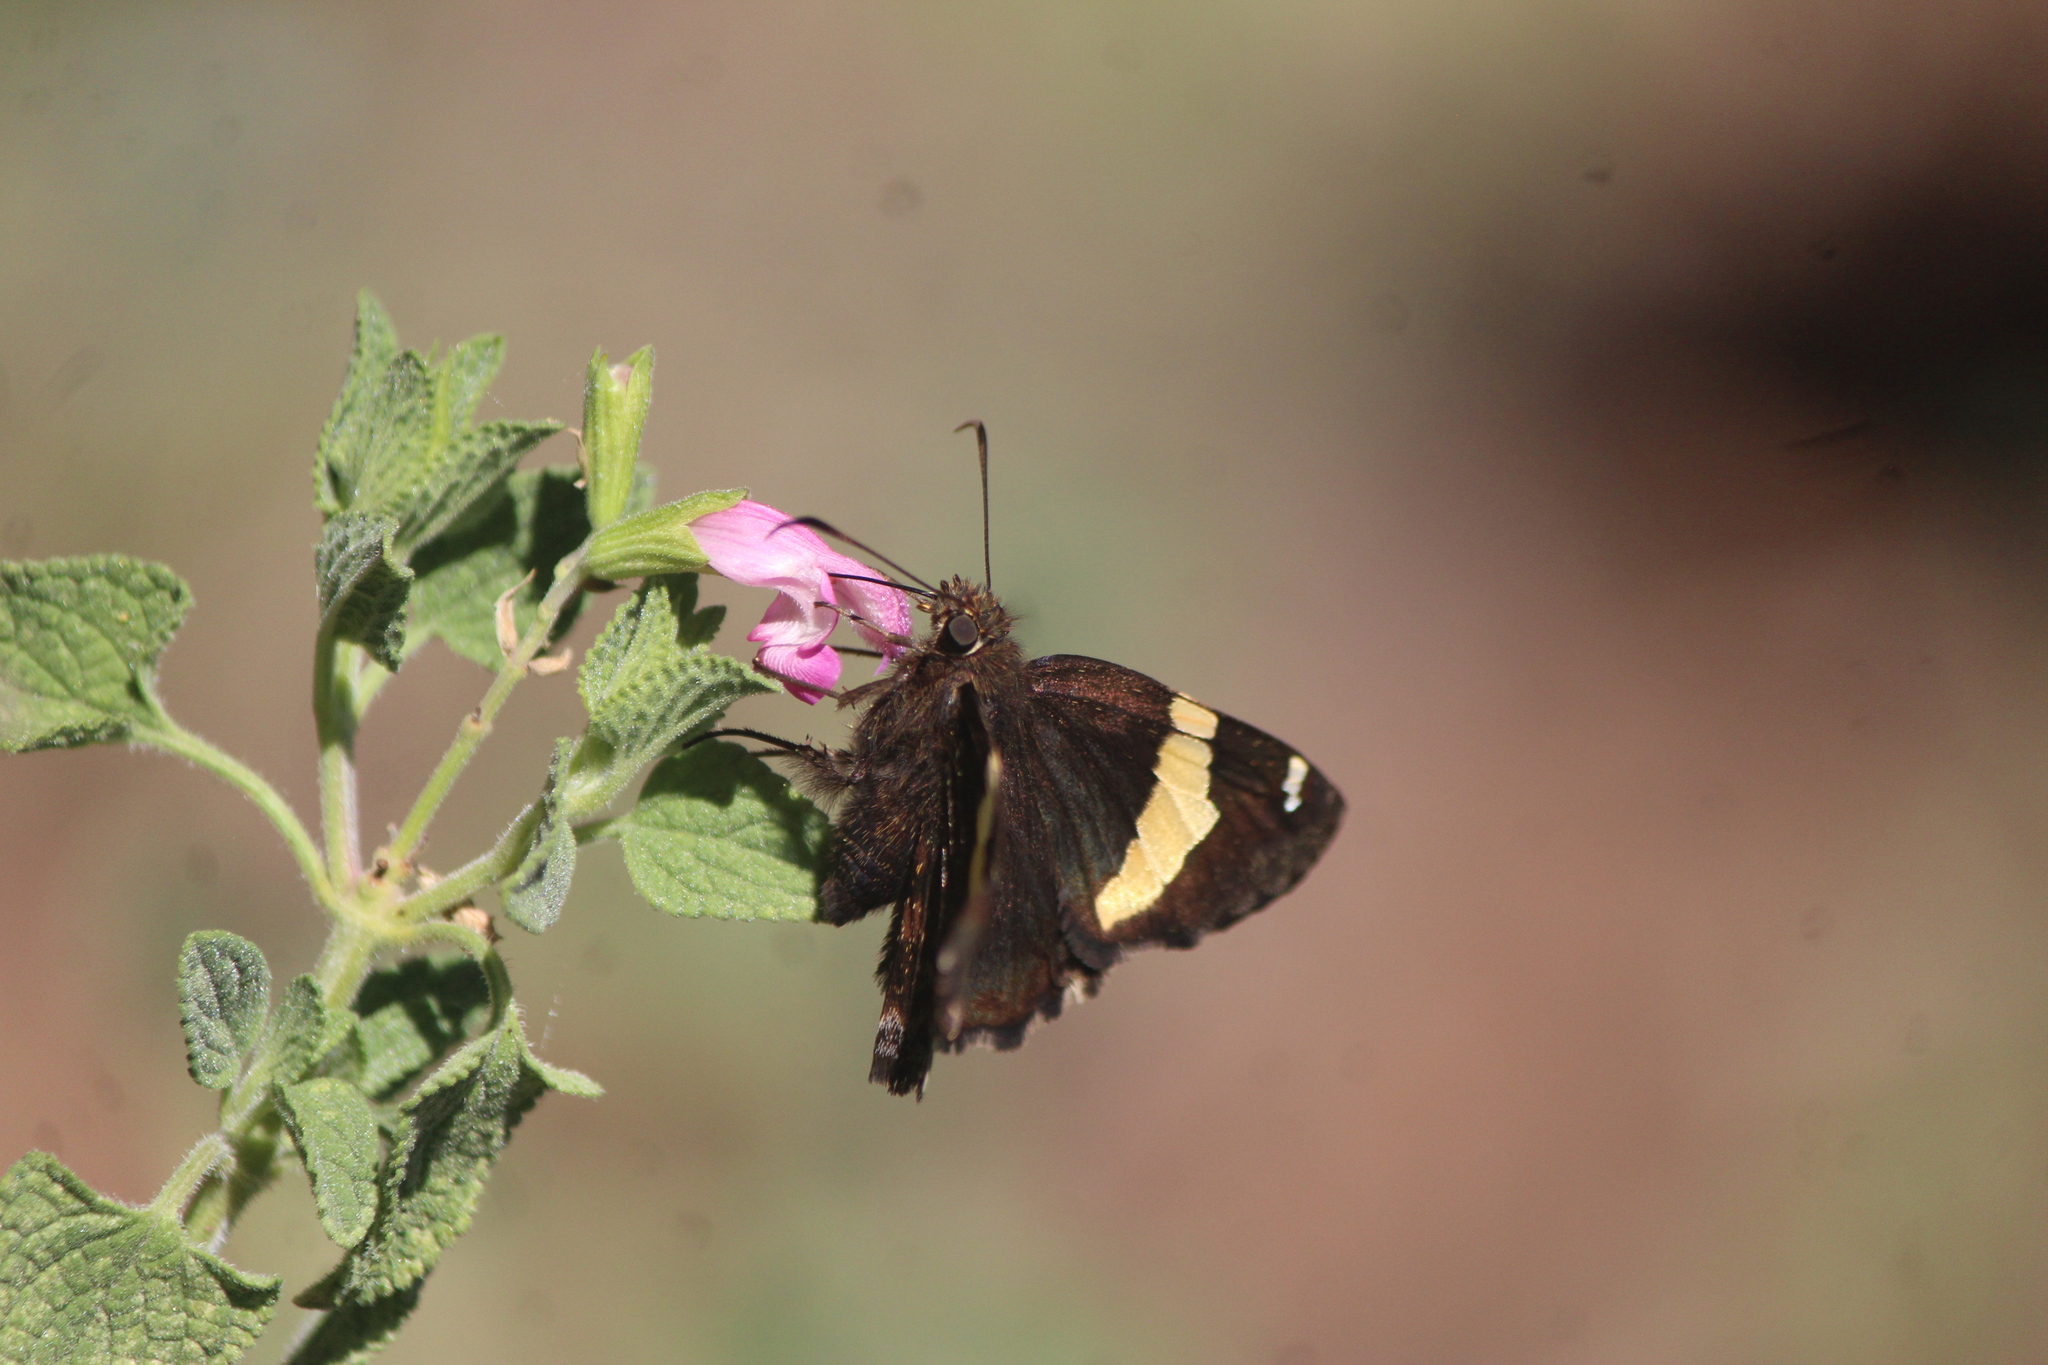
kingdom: Animalia
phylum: Arthropoda
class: Arachnida
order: Scorpiones
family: Bothriuridae
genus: Telegonus
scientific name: Telegonus cellus
